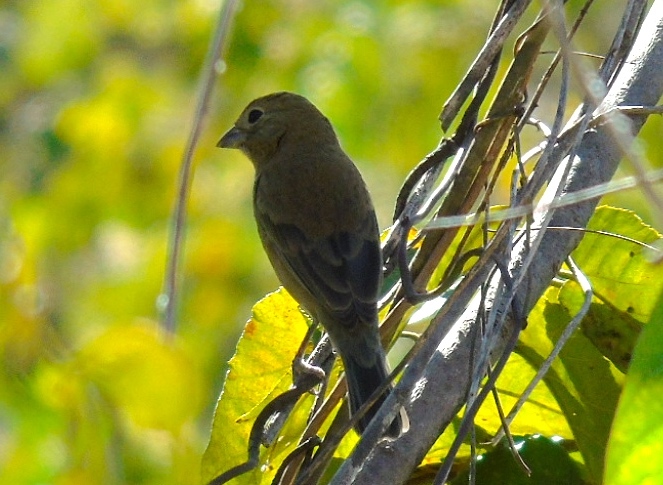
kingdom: Animalia
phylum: Chordata
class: Aves
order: Passeriformes
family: Thraupidae
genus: Sporophila
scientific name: Sporophila torqueola
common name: White-collared seedeater
